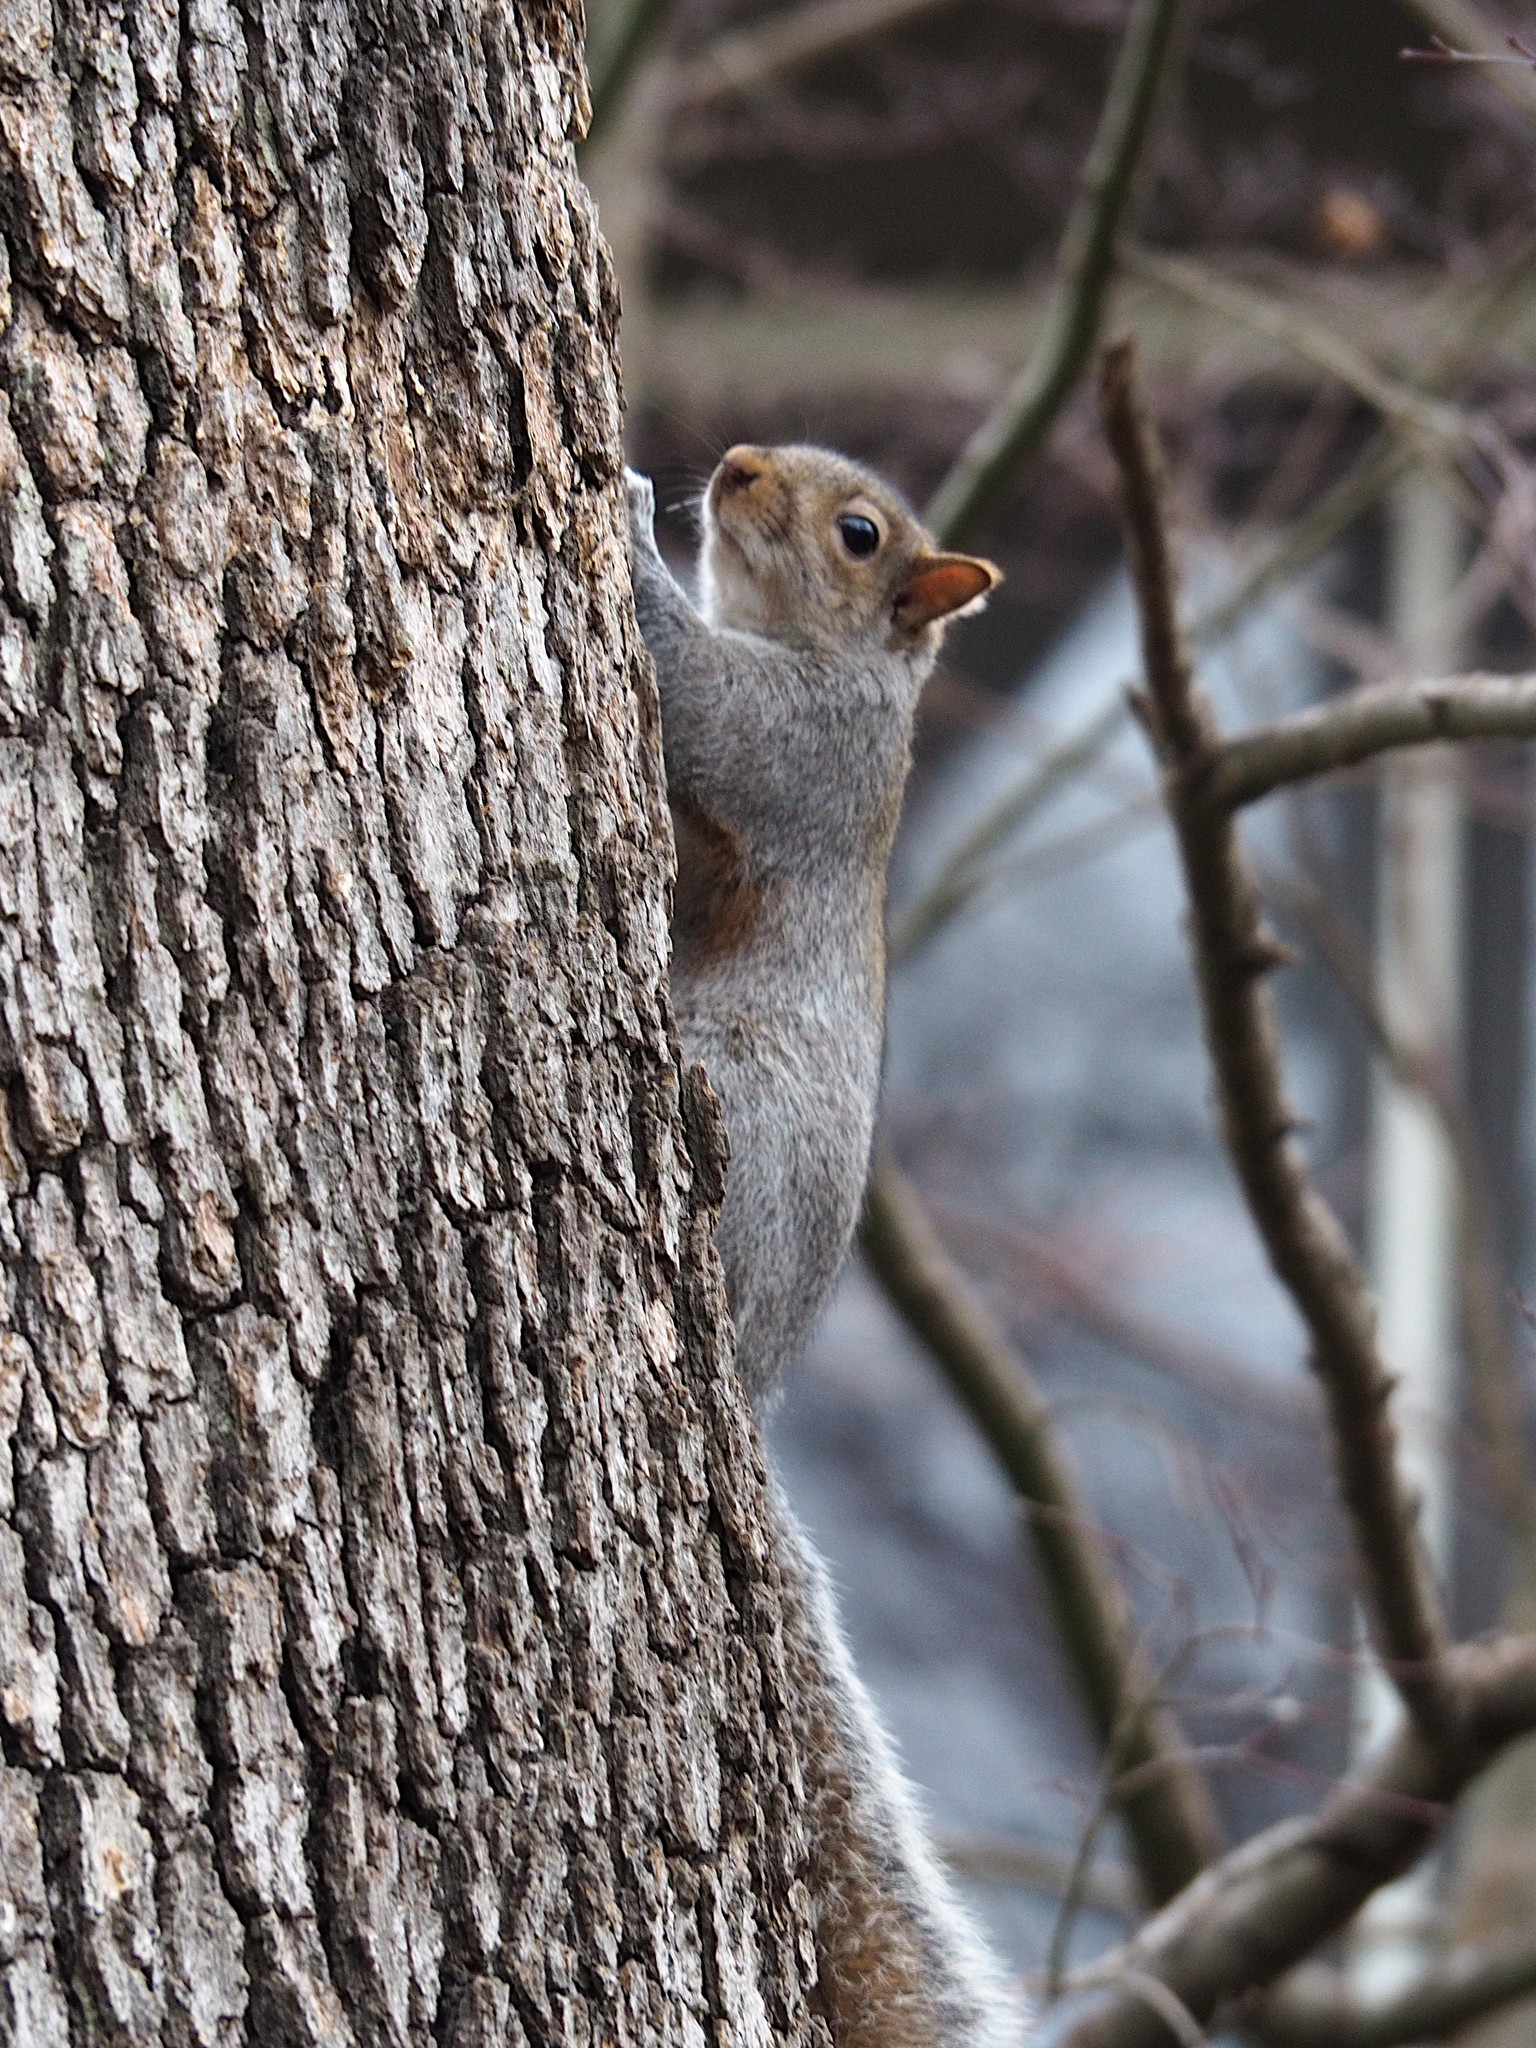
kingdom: Animalia
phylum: Chordata
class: Mammalia
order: Rodentia
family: Sciuridae
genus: Sciurus
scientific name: Sciurus carolinensis
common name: Eastern gray squirrel
